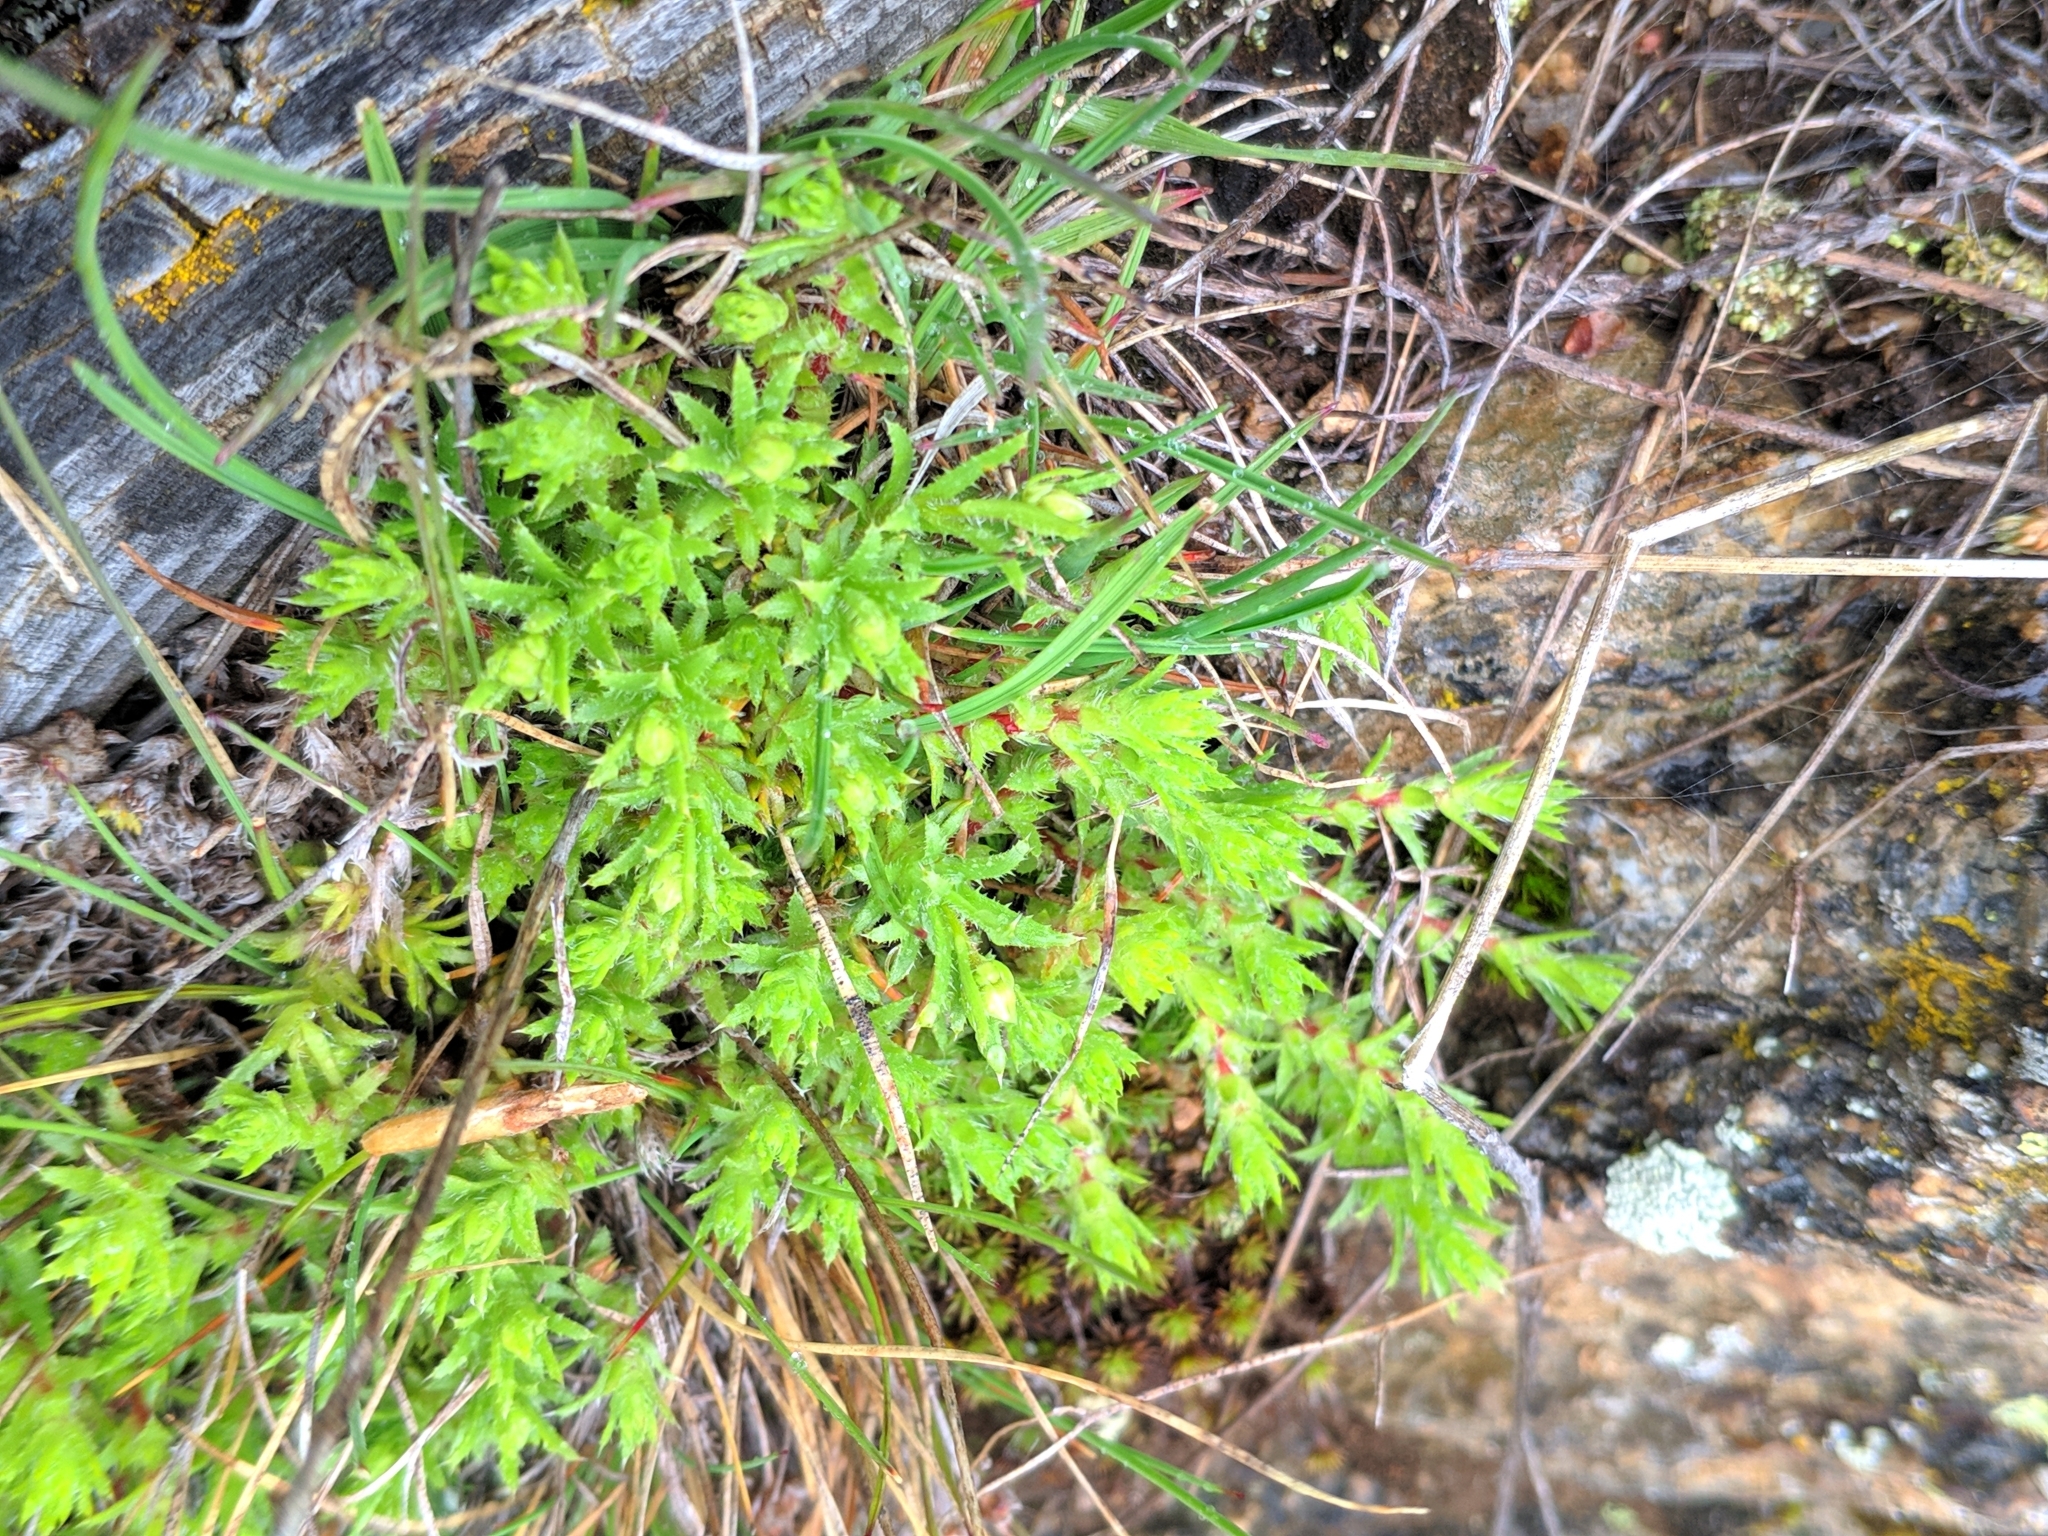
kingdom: Plantae
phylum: Tracheophyta
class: Magnoliopsida
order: Saxifragales
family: Saxifragaceae
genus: Saxifraga
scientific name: Saxifraga aspera
